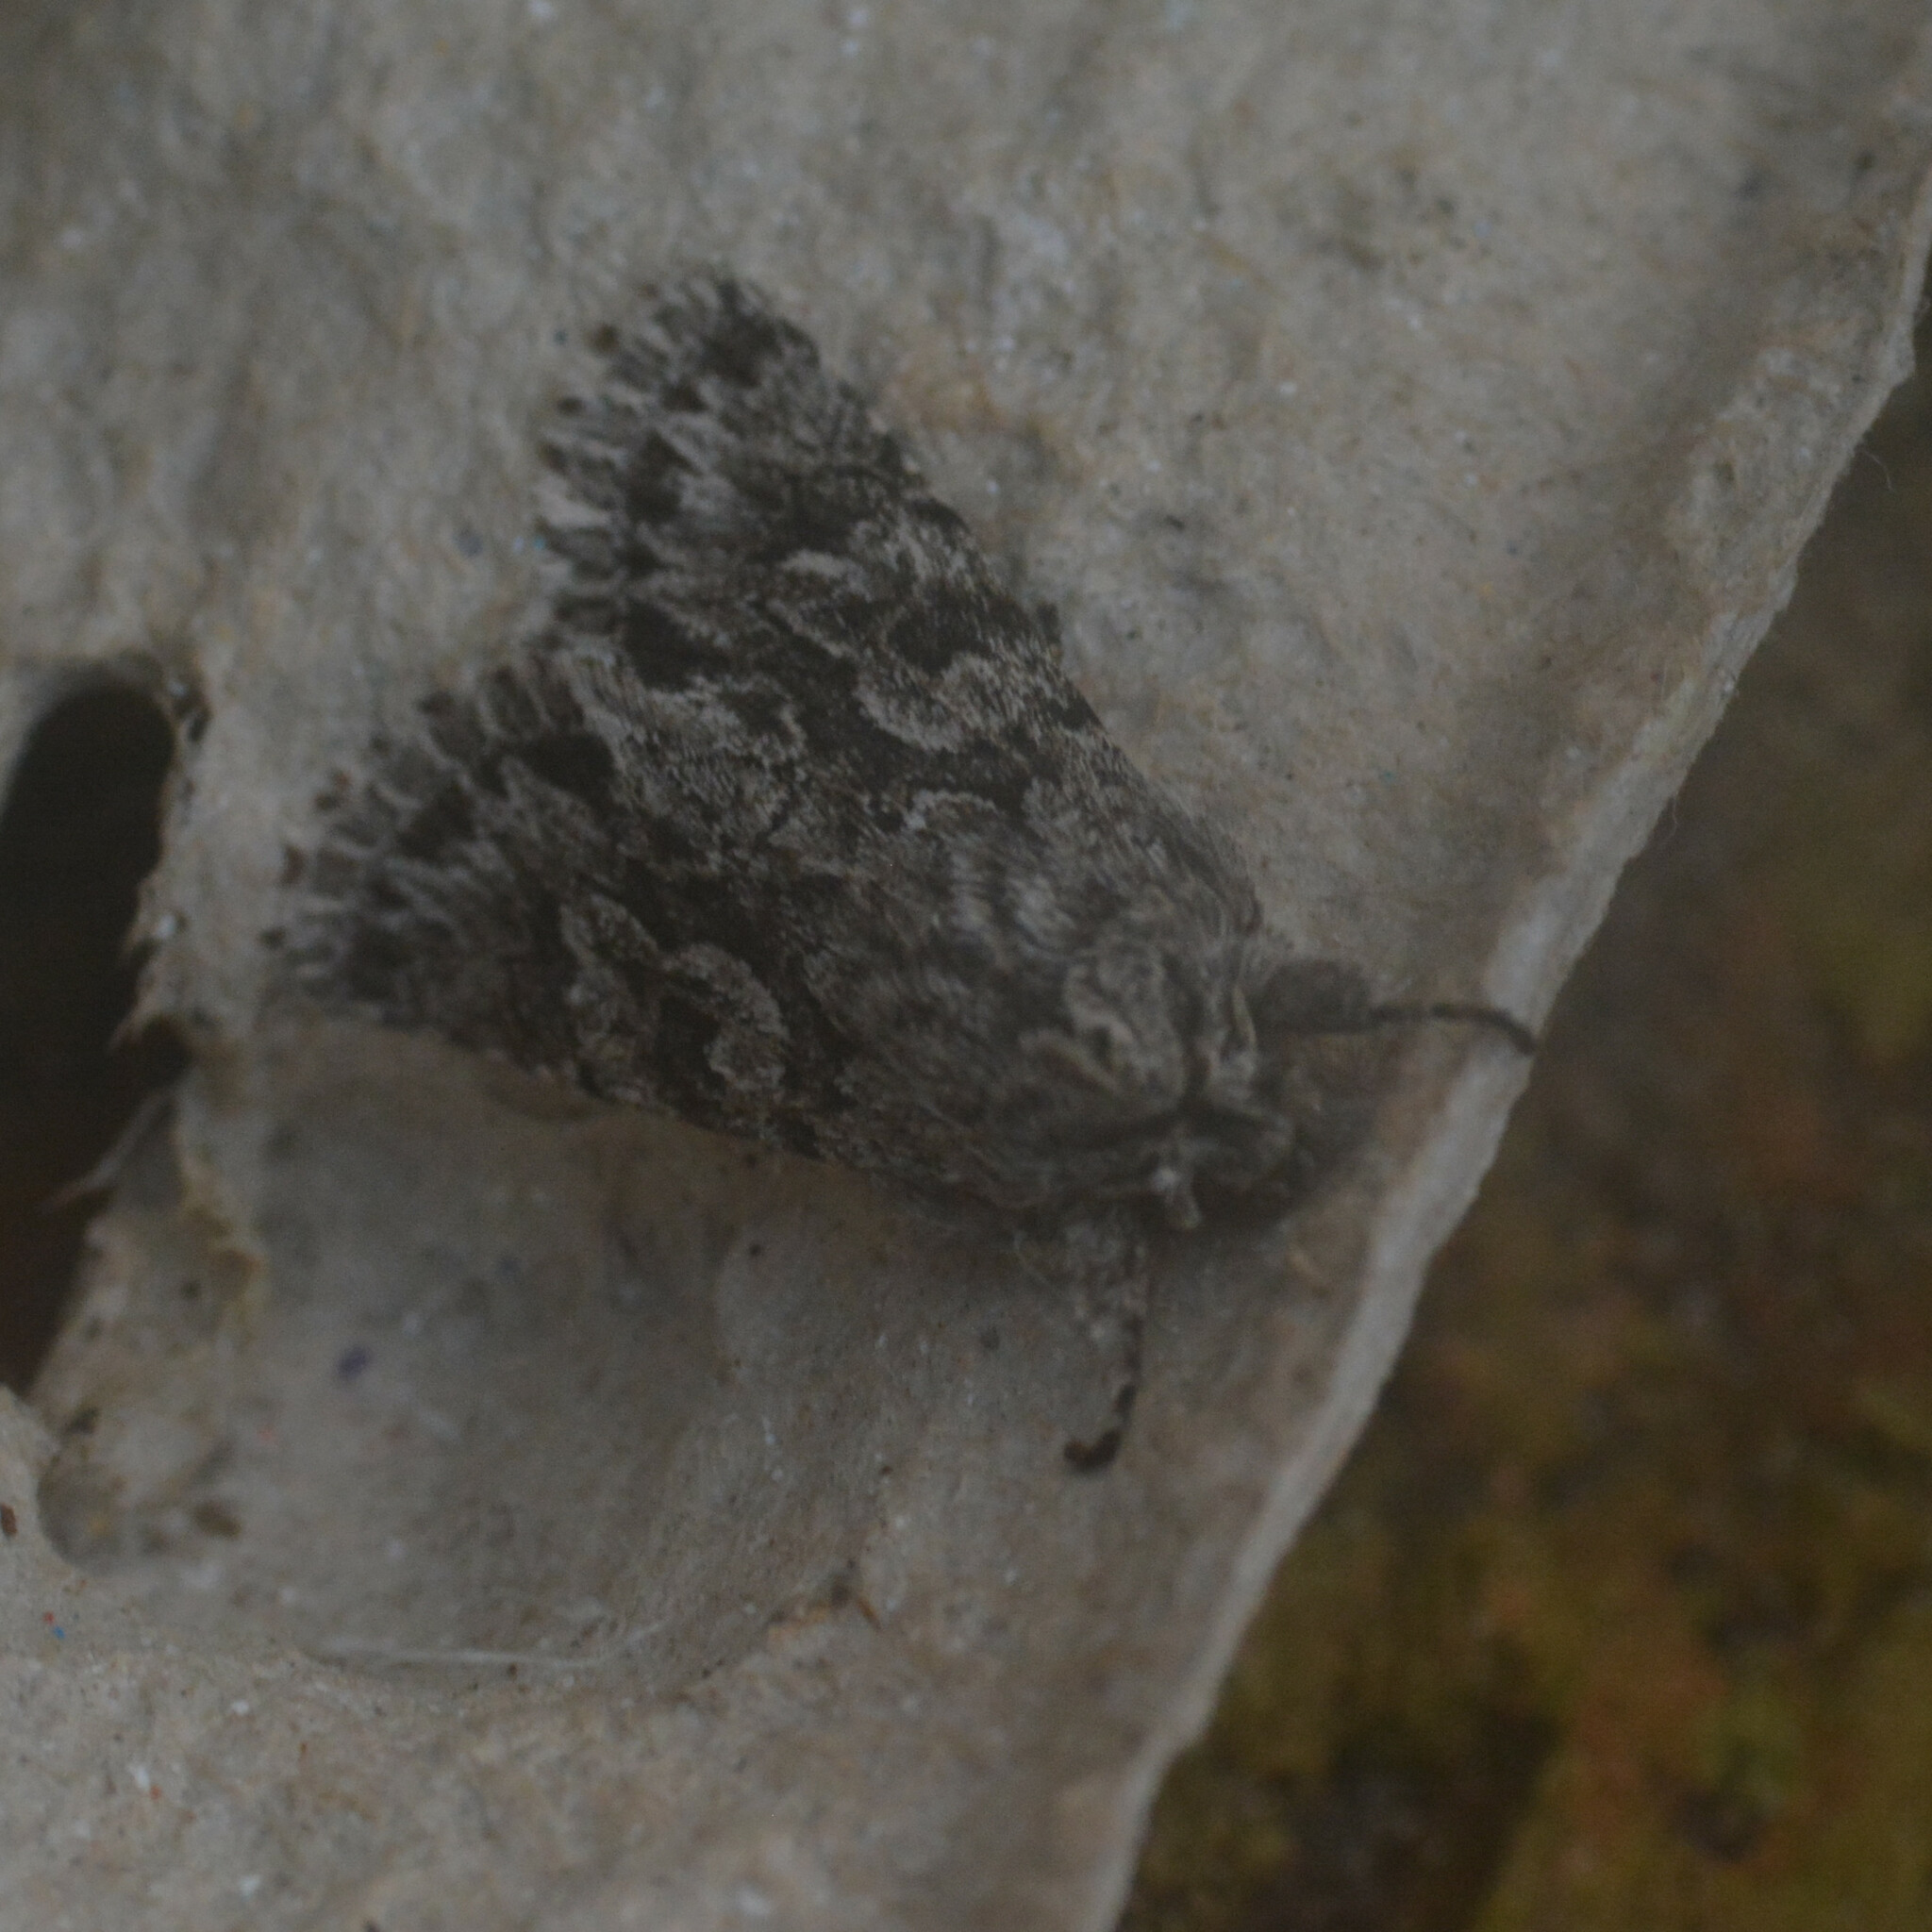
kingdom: Animalia
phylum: Arthropoda
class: Insecta
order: Lepidoptera
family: Noctuidae
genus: Xylocampa
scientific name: Xylocampa areola
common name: Early grey
